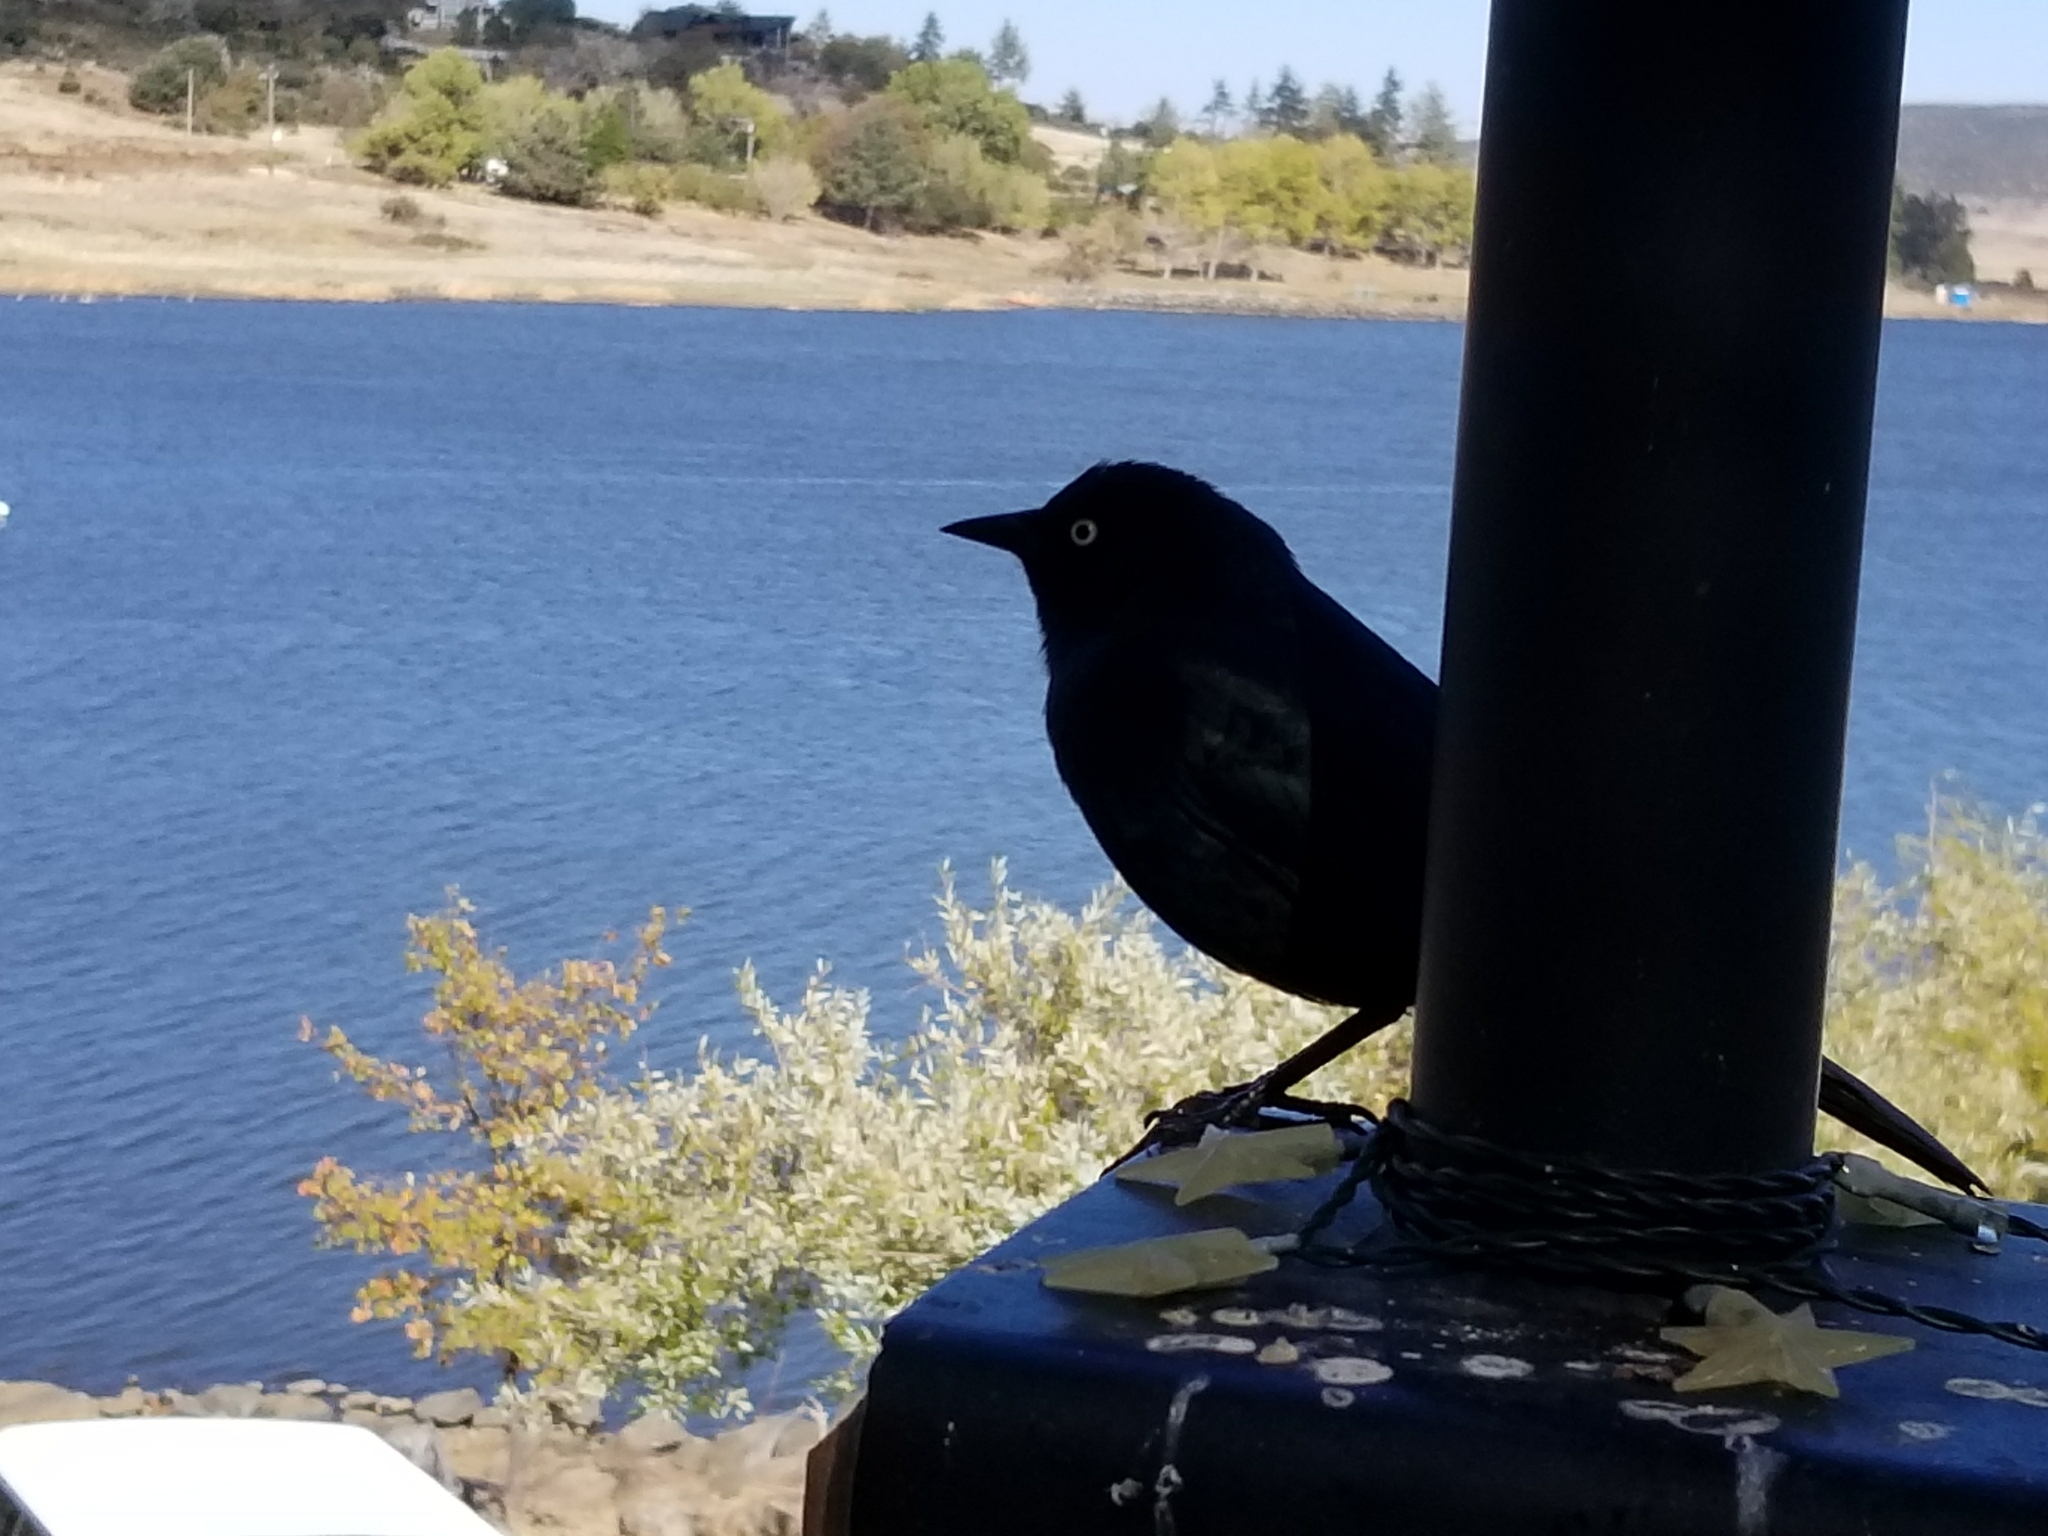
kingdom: Animalia
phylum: Chordata
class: Aves
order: Passeriformes
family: Icteridae
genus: Euphagus
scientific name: Euphagus cyanocephalus
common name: Brewer's blackbird
